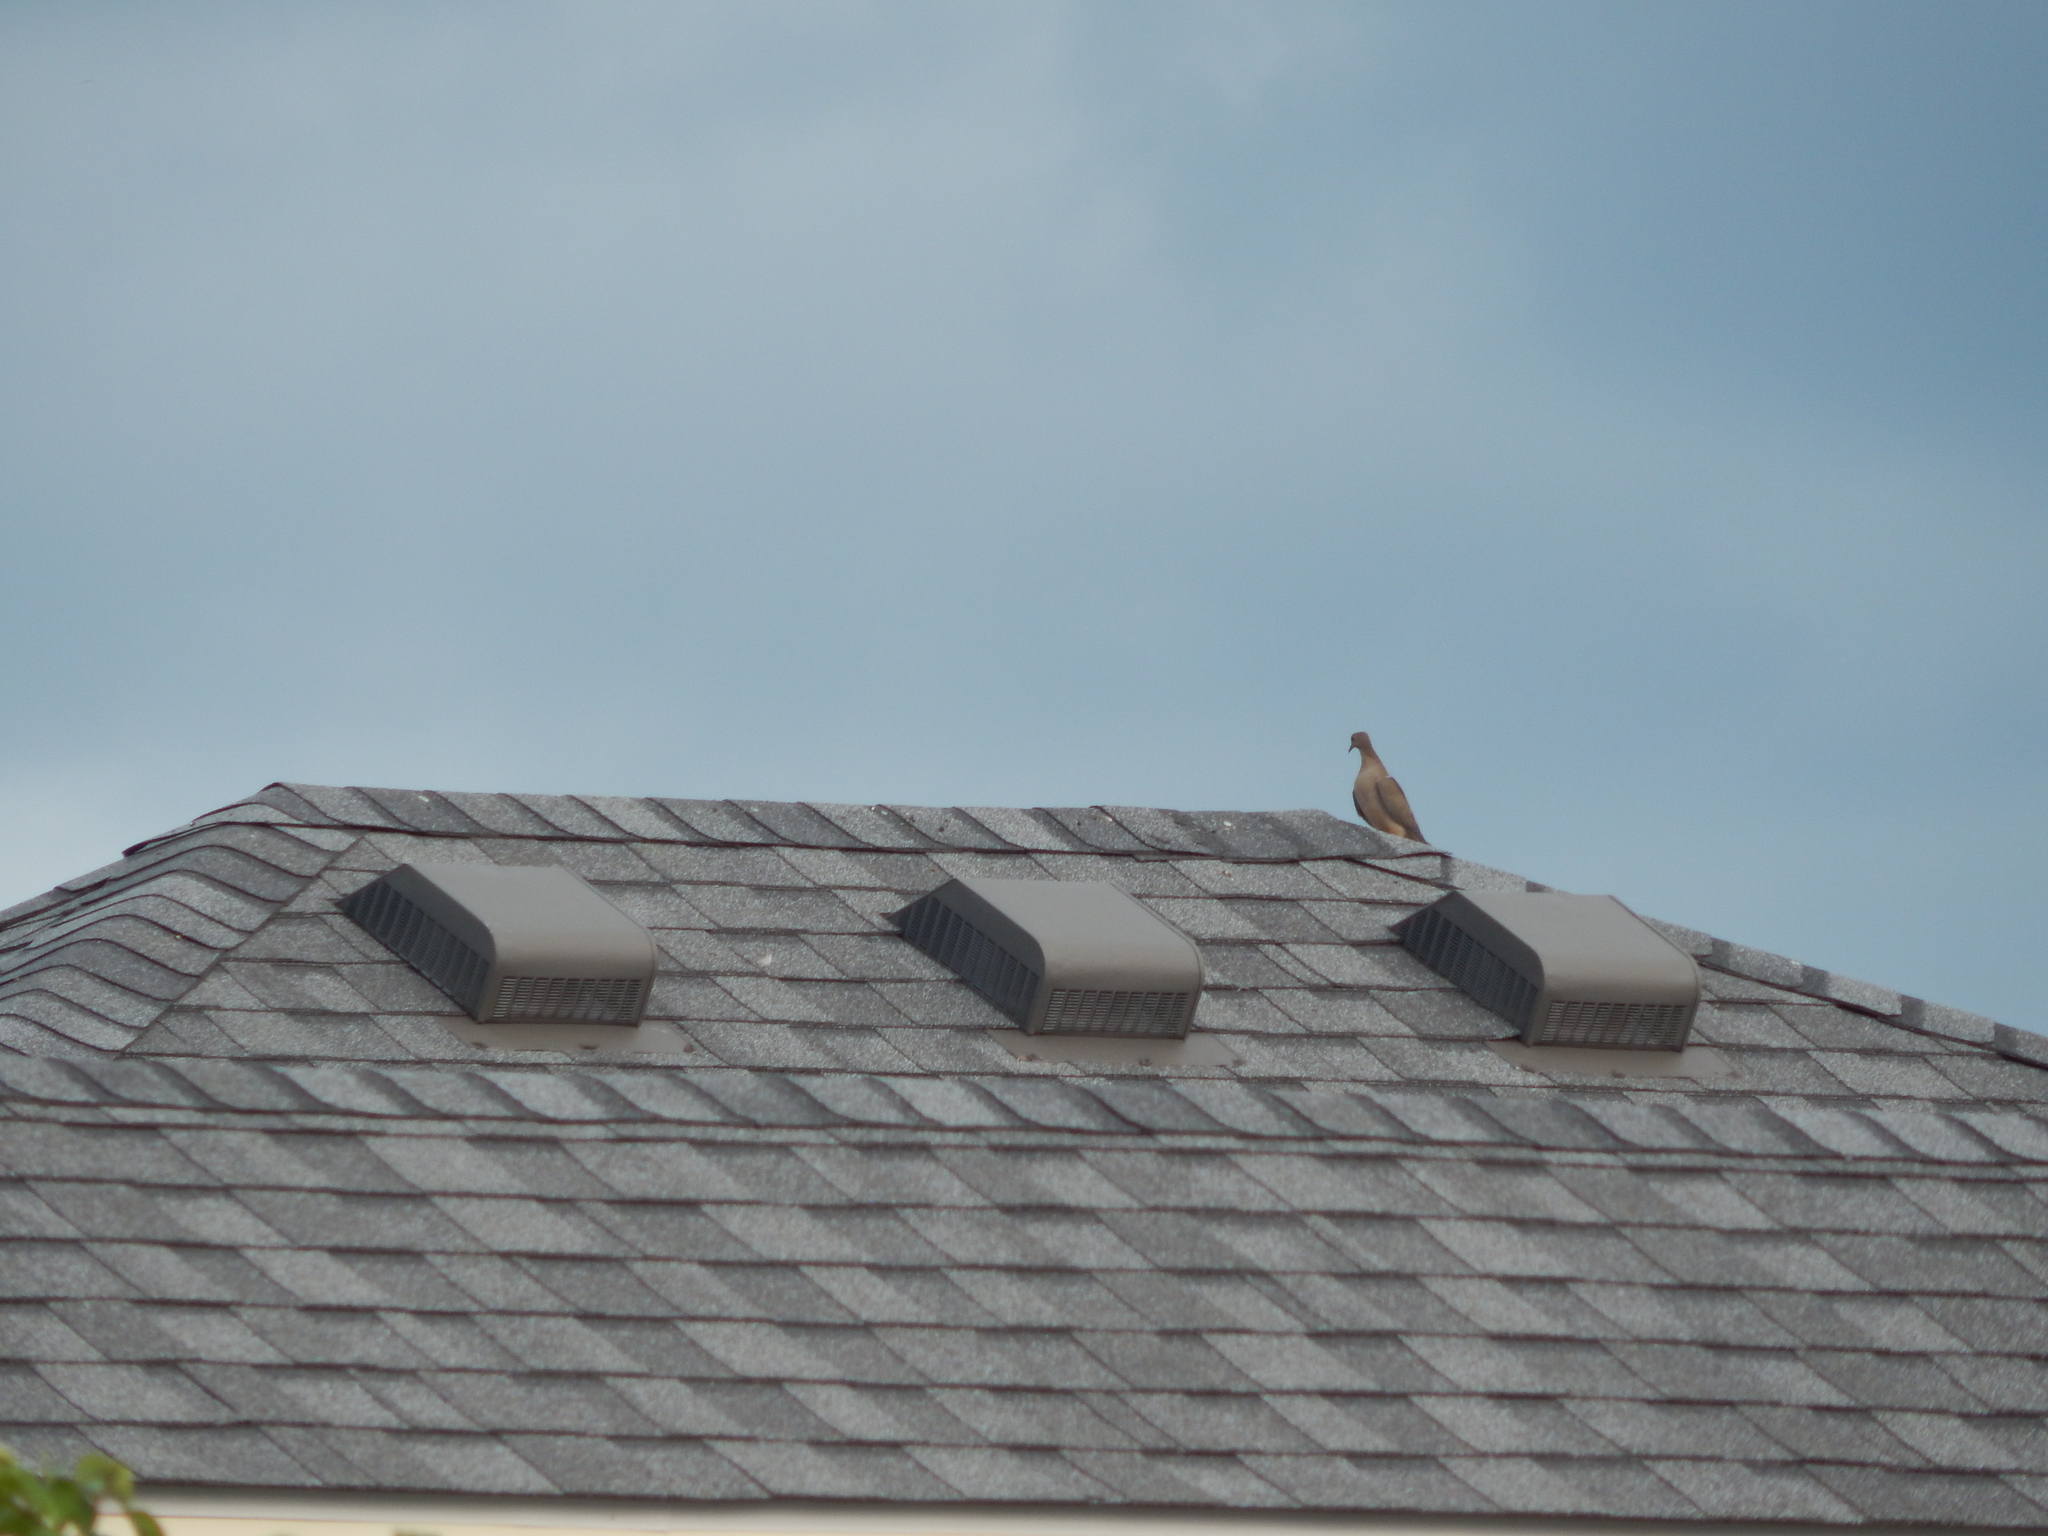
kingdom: Animalia
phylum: Chordata
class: Aves
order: Columbiformes
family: Columbidae
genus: Zenaida
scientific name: Zenaida macroura
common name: Mourning dove
